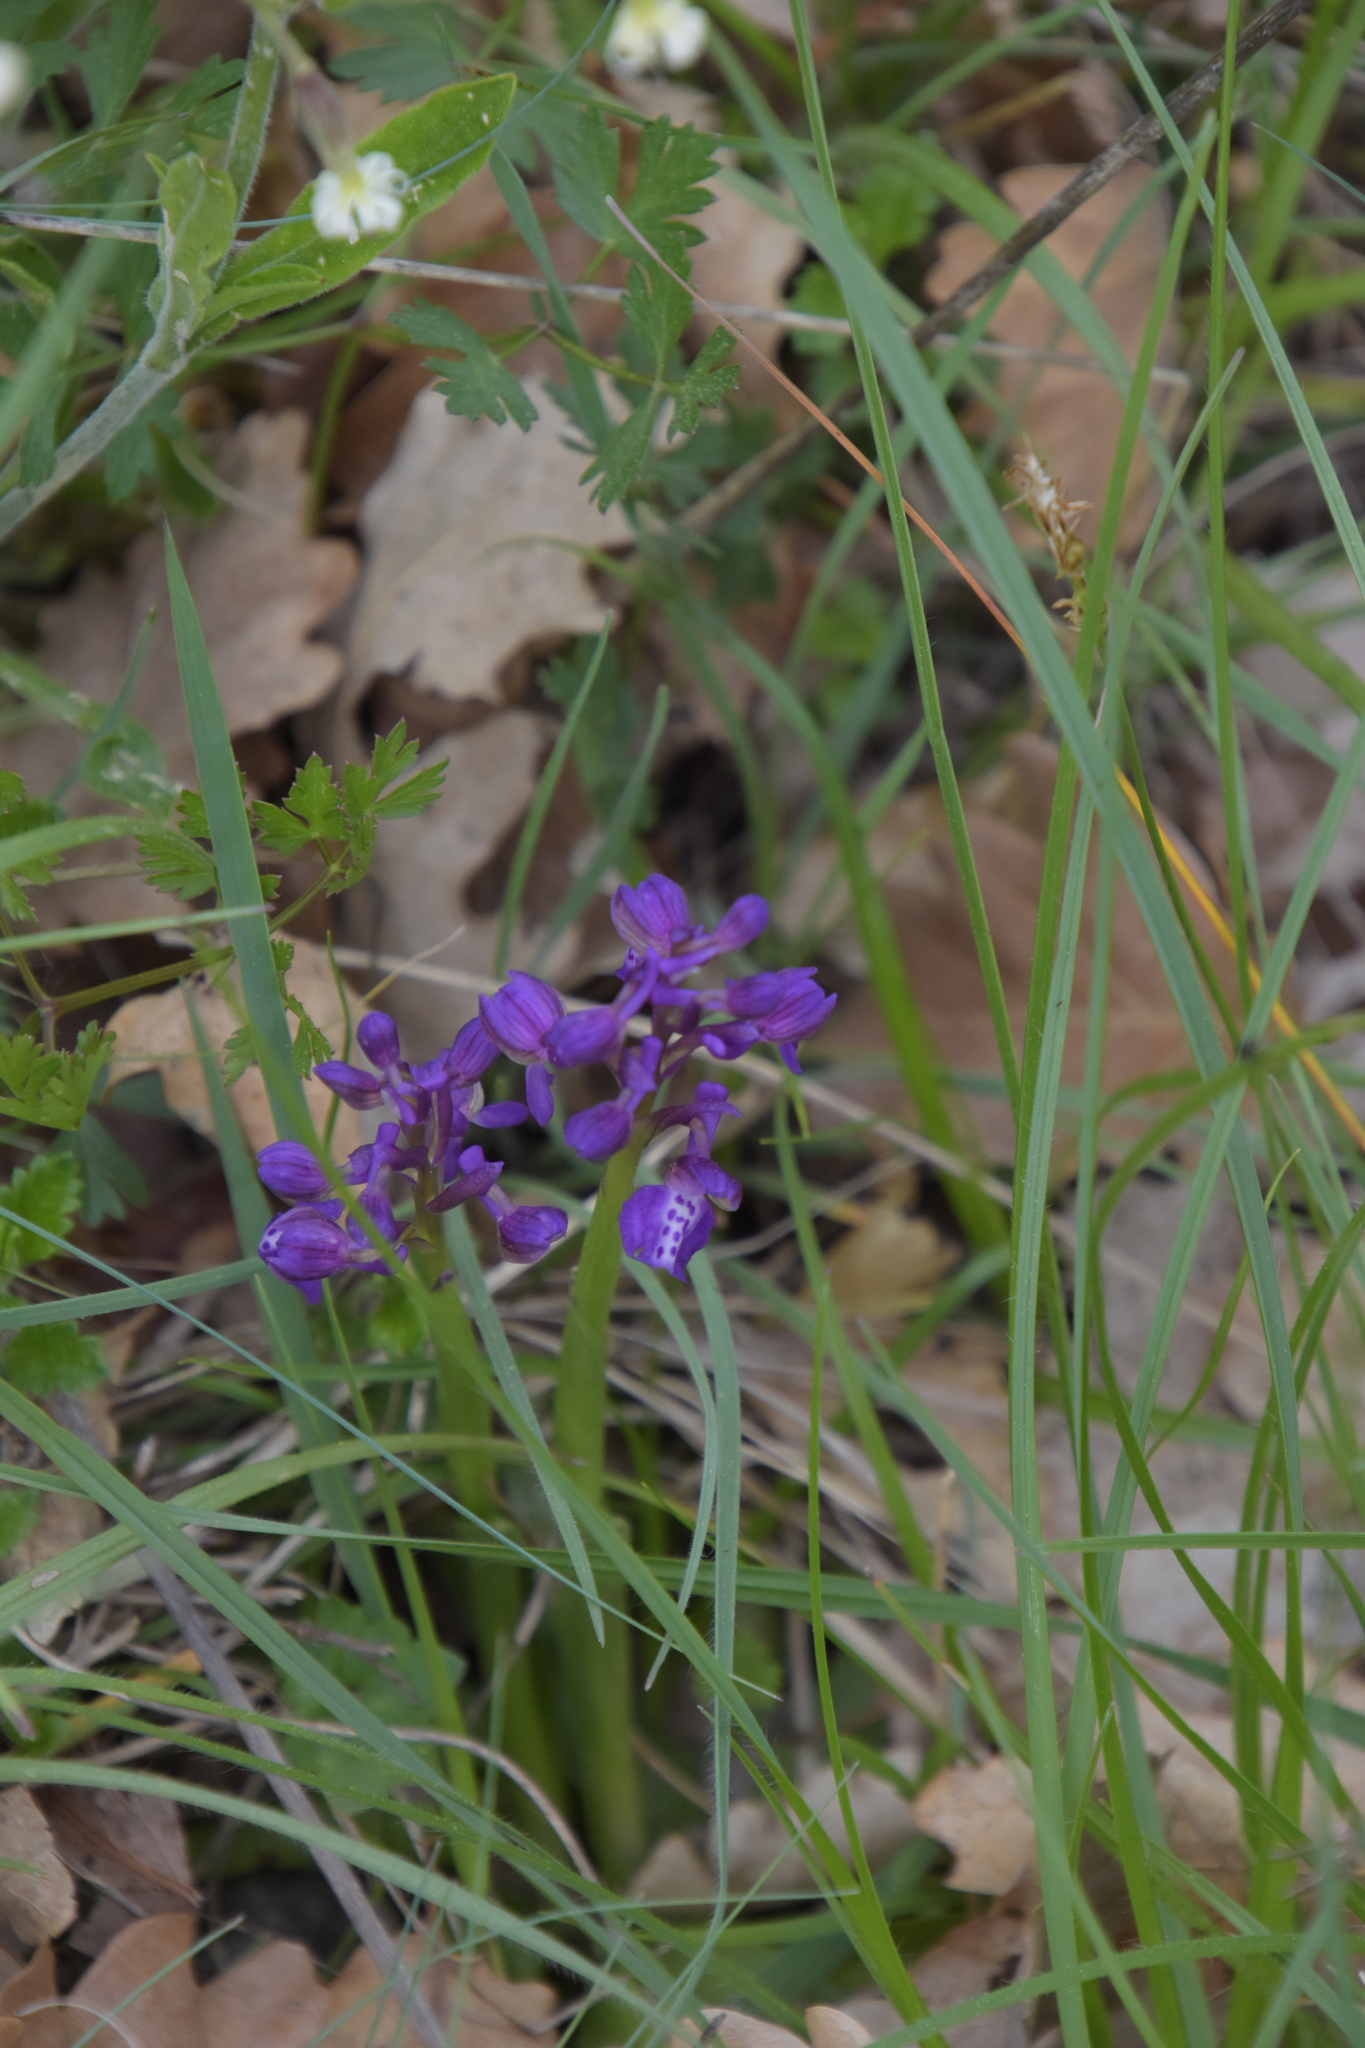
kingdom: Plantae
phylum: Tracheophyta
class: Liliopsida
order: Asparagales
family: Orchidaceae
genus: Anacamptis
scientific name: Anacamptis morio
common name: Green-winged orchid
